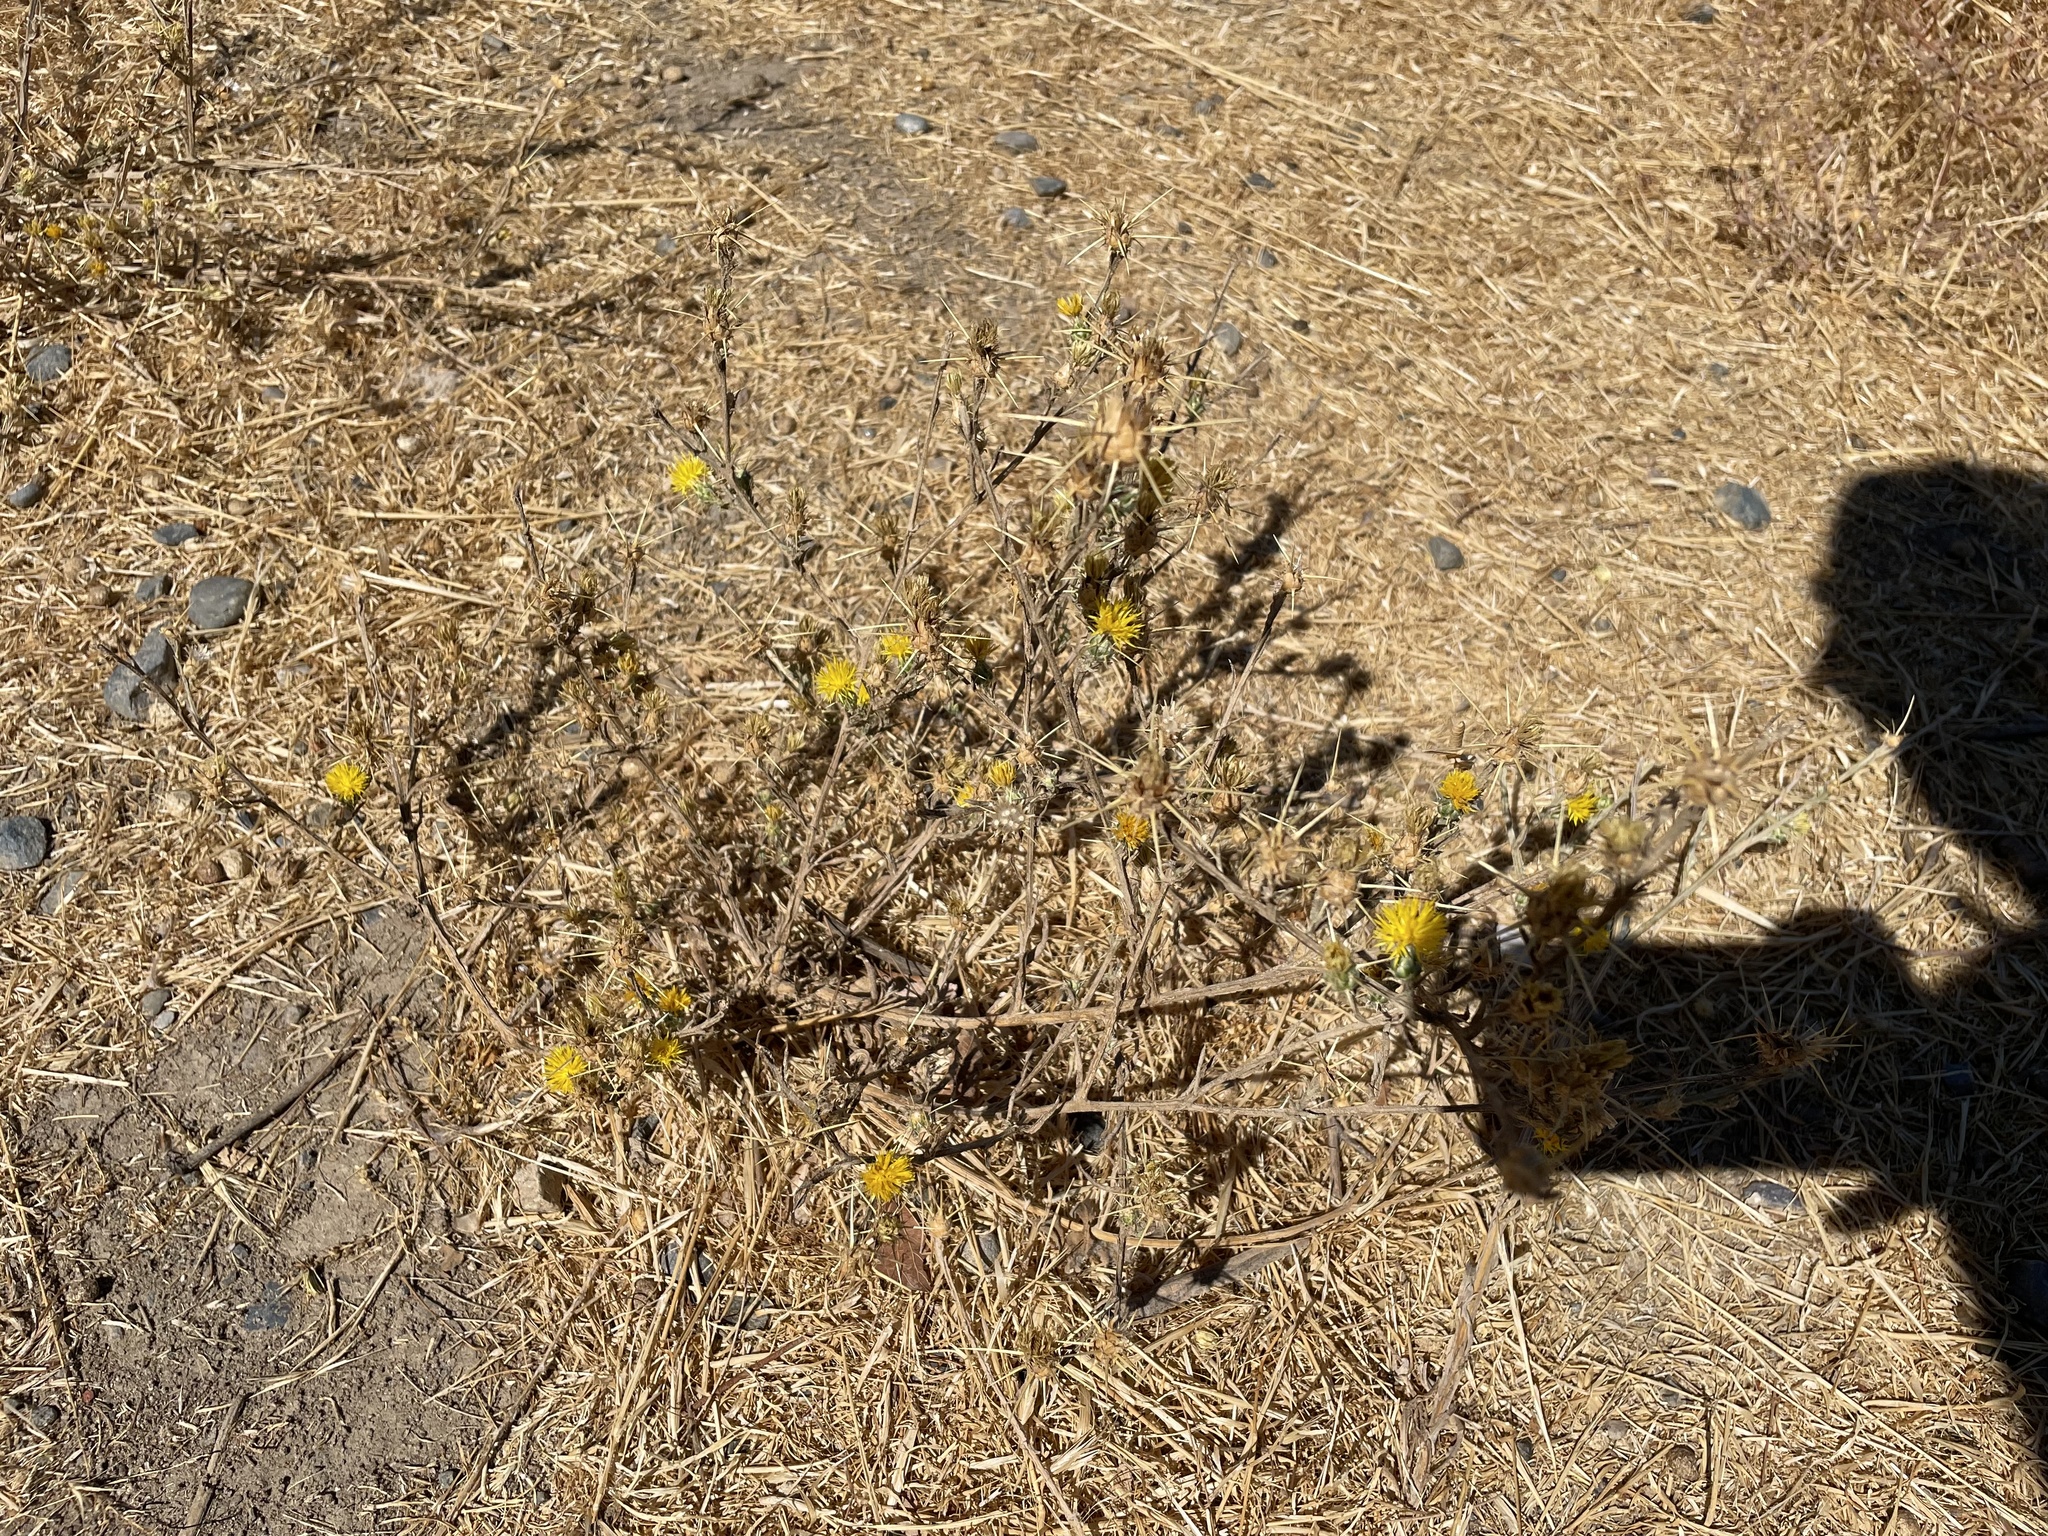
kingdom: Plantae
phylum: Tracheophyta
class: Magnoliopsida
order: Asterales
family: Asteraceae
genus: Centaurea
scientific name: Centaurea solstitialis
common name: Yellow star-thistle
